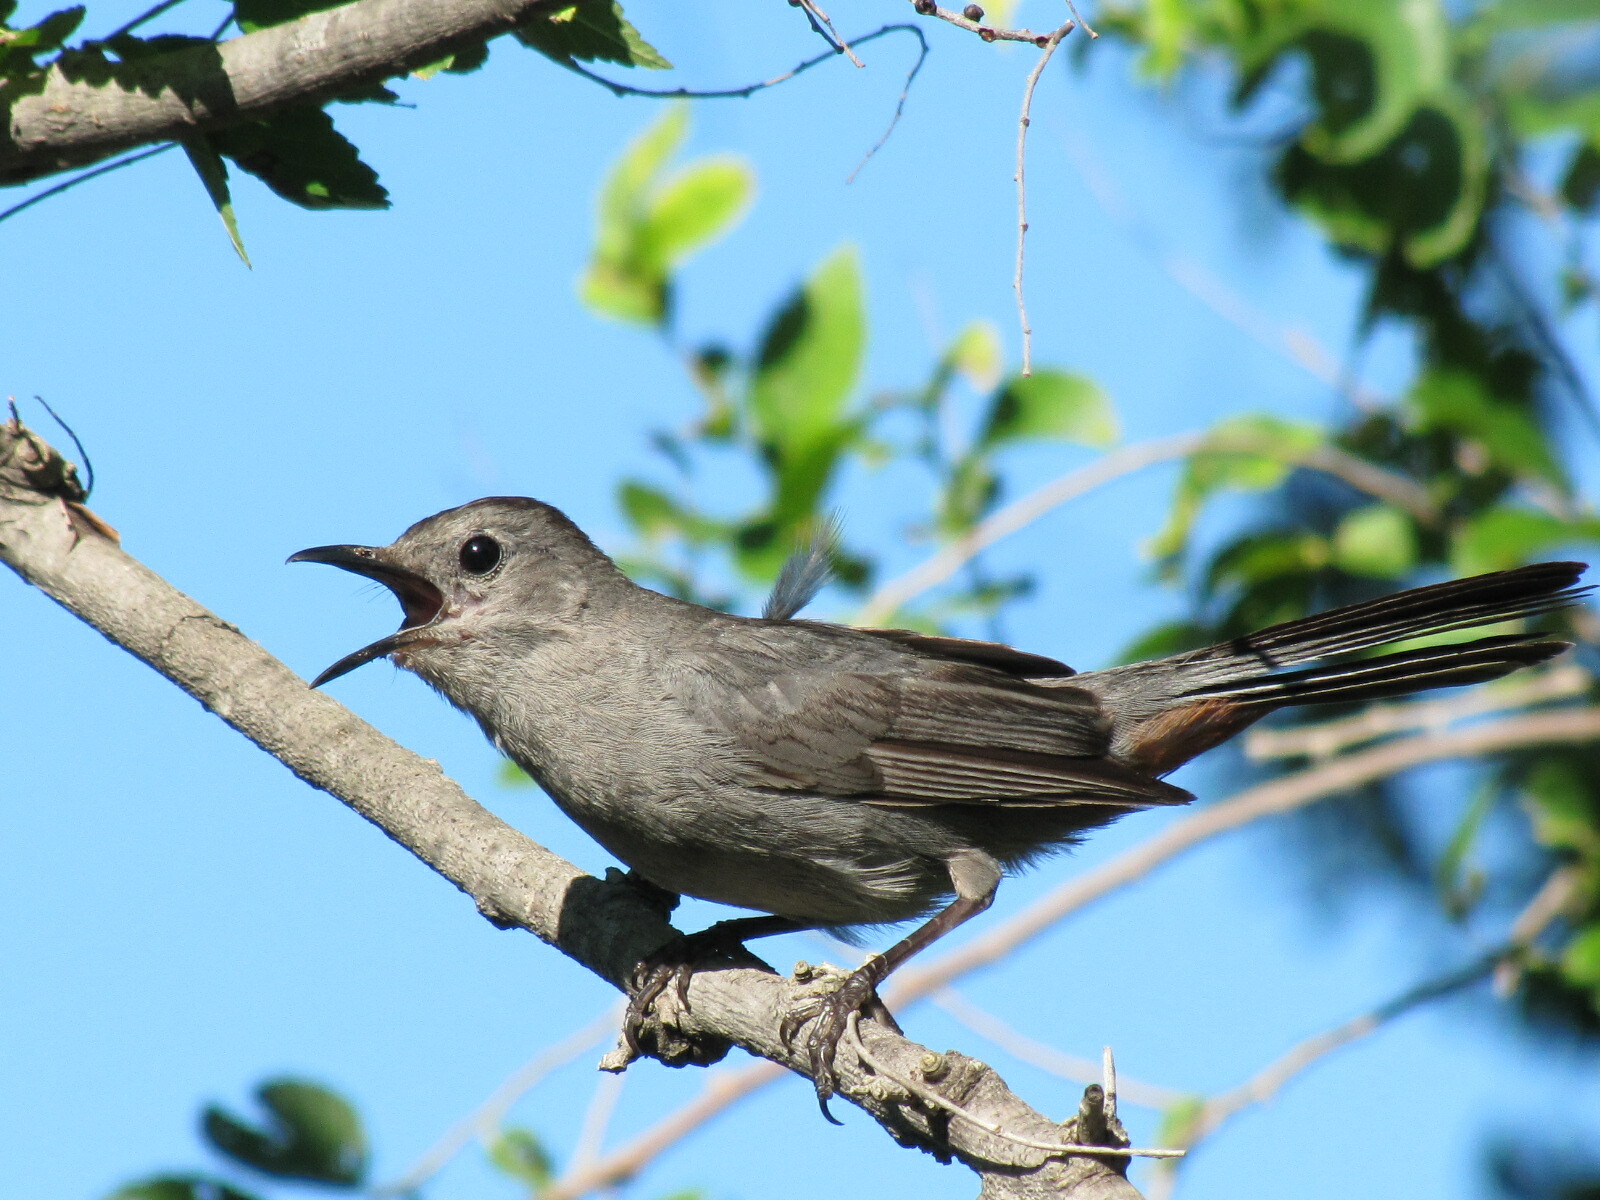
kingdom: Animalia
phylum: Chordata
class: Aves
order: Passeriformes
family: Mimidae
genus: Dumetella
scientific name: Dumetella carolinensis
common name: Gray catbird
